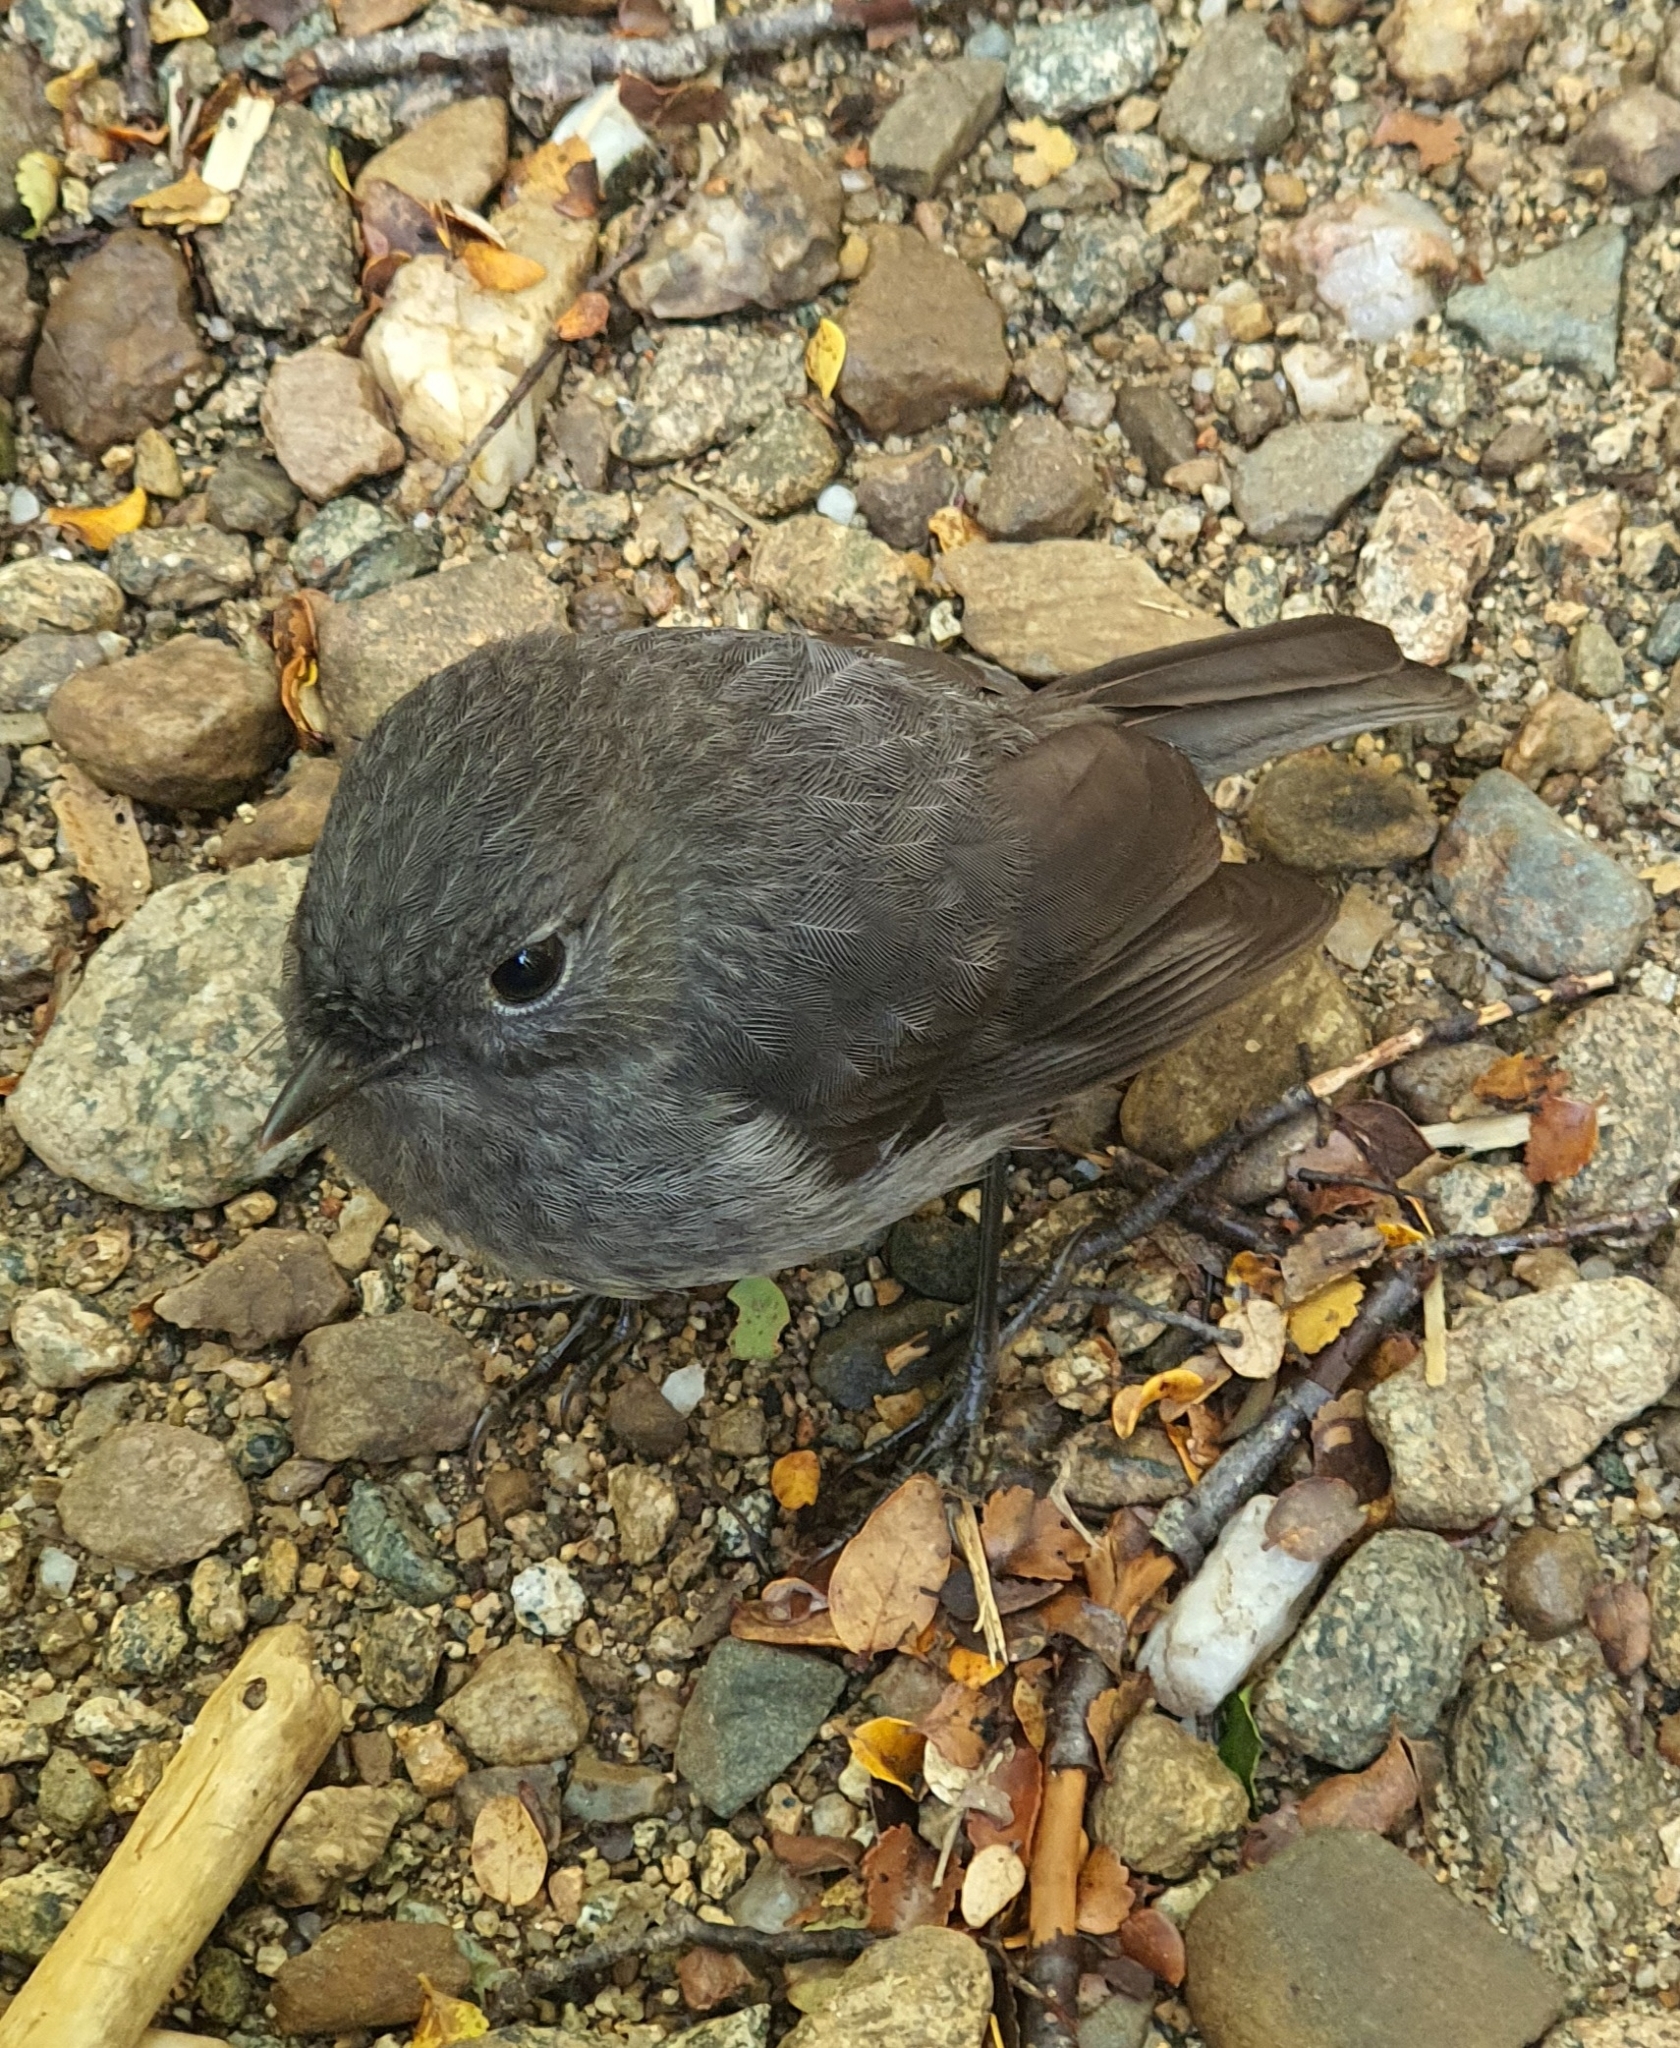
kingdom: Animalia
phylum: Chordata
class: Aves
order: Passeriformes
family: Petroicidae
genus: Petroica
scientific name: Petroica australis
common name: New zealand robin
